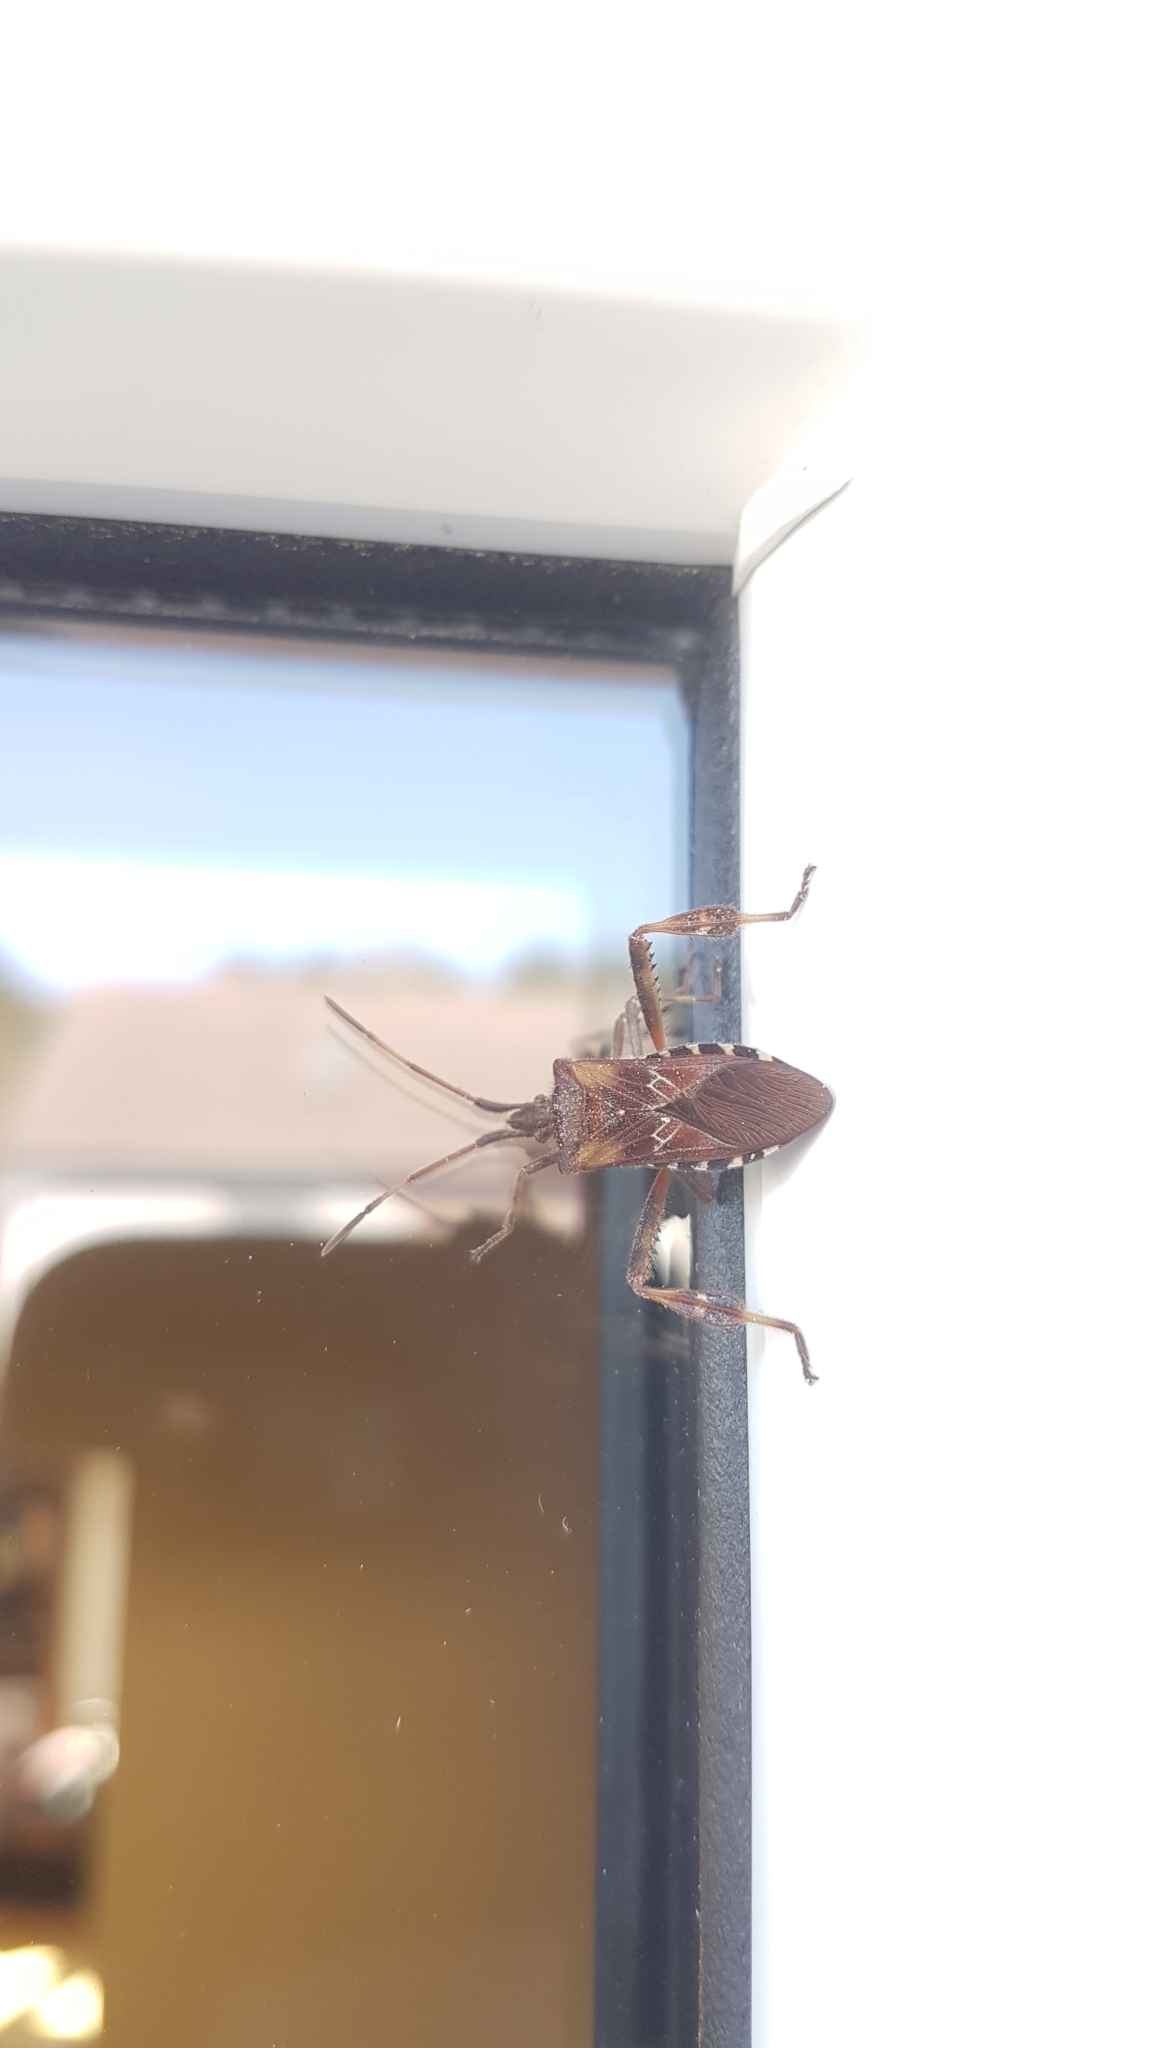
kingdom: Animalia
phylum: Arthropoda
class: Insecta
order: Hemiptera
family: Coreidae
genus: Leptoglossus
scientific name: Leptoglossus occidentalis
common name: Western conifer-seed bug
